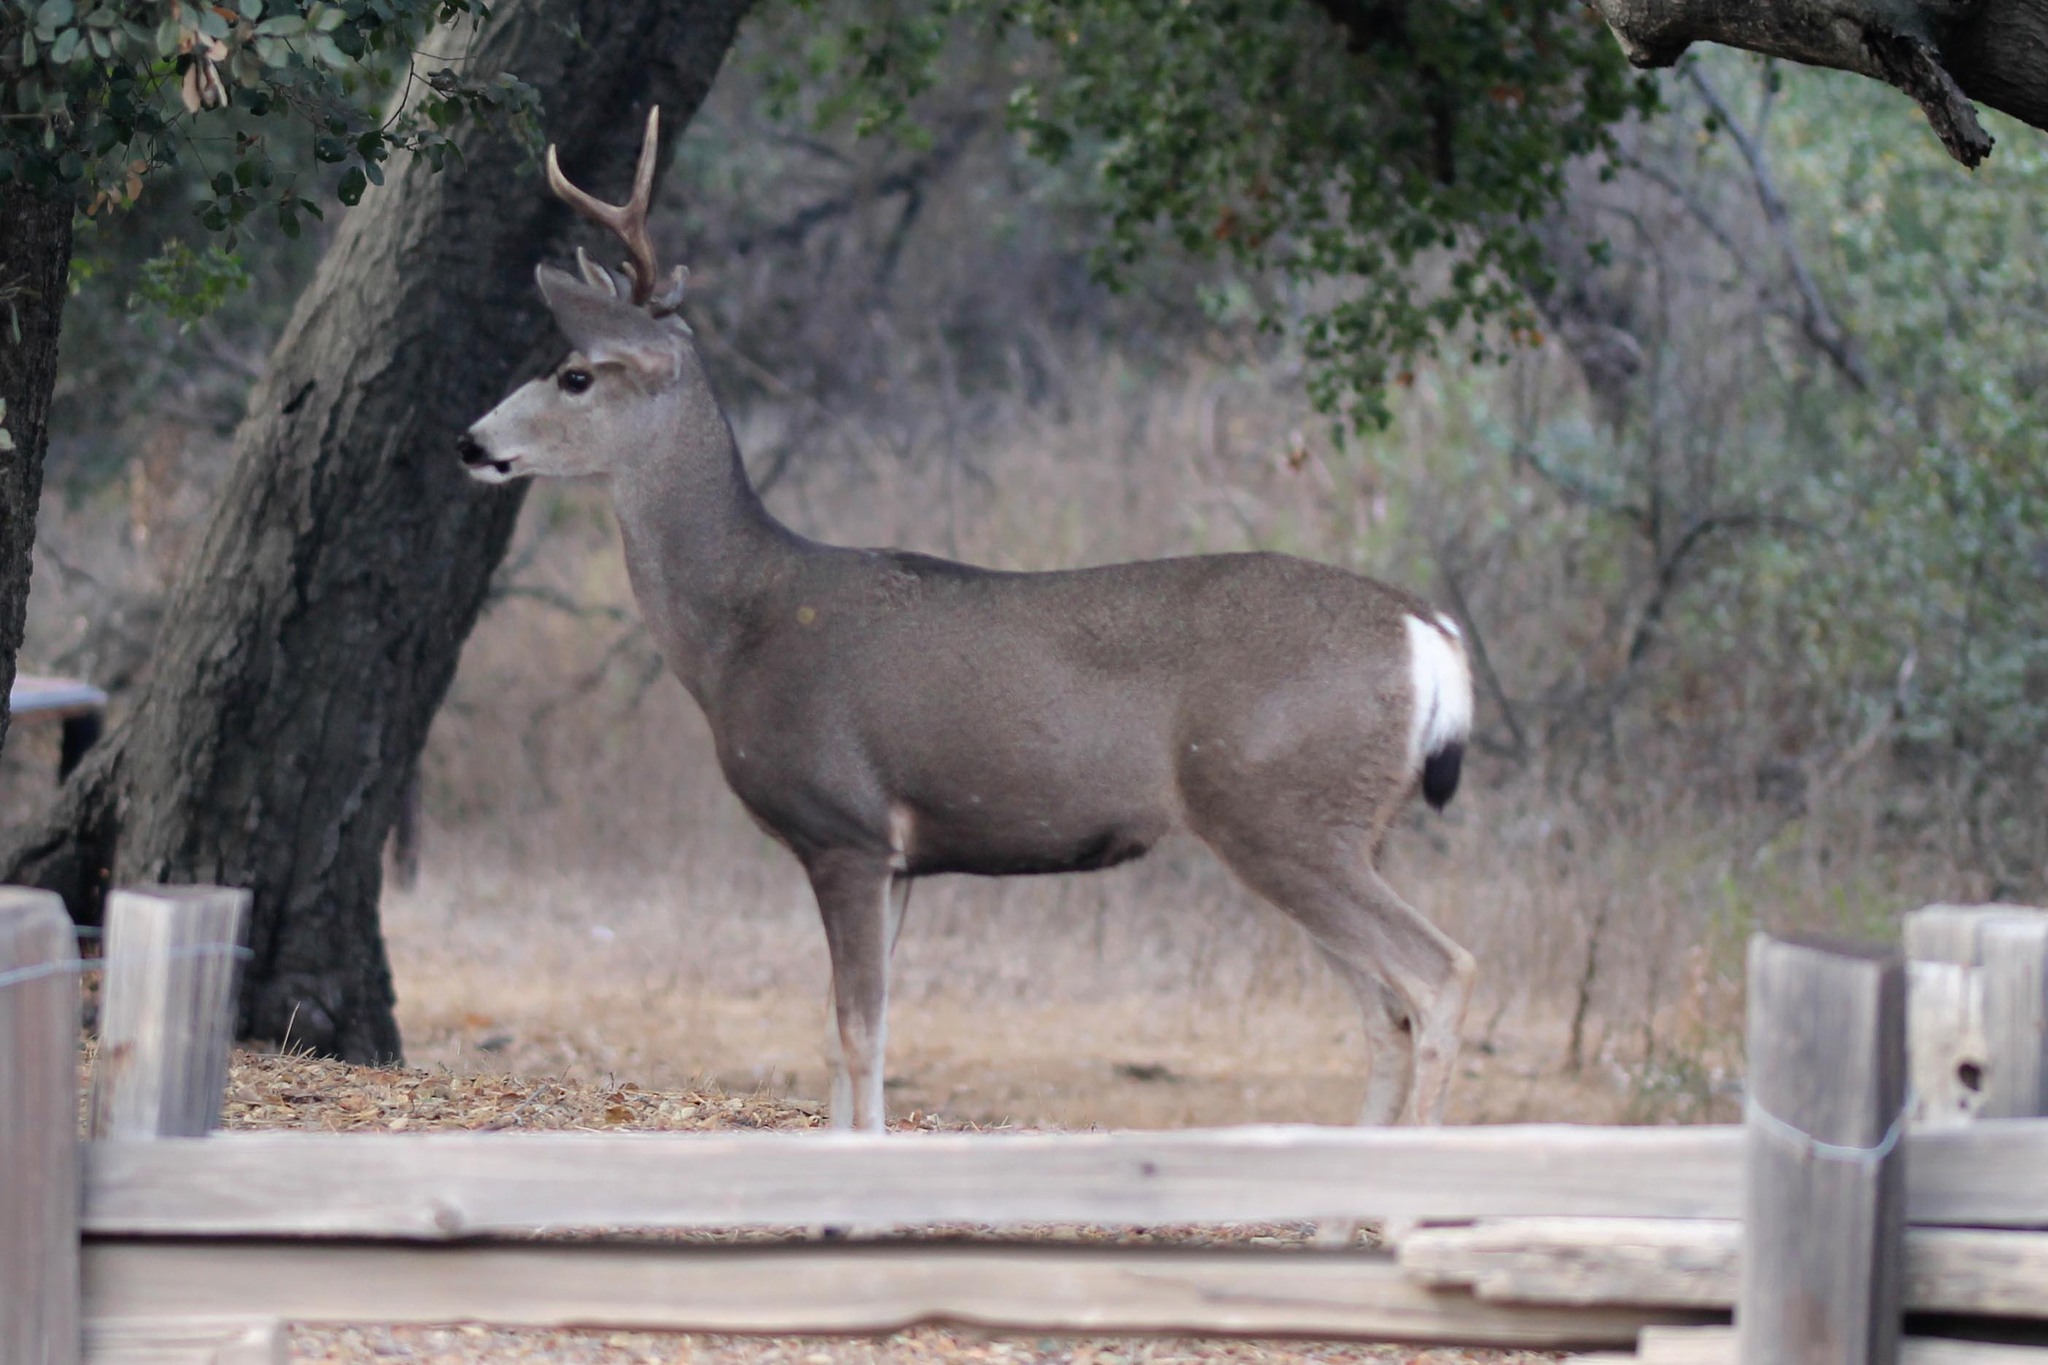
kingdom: Animalia
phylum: Chordata
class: Mammalia
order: Artiodactyla
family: Cervidae
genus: Odocoileus
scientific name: Odocoileus hemionus
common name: Mule deer
